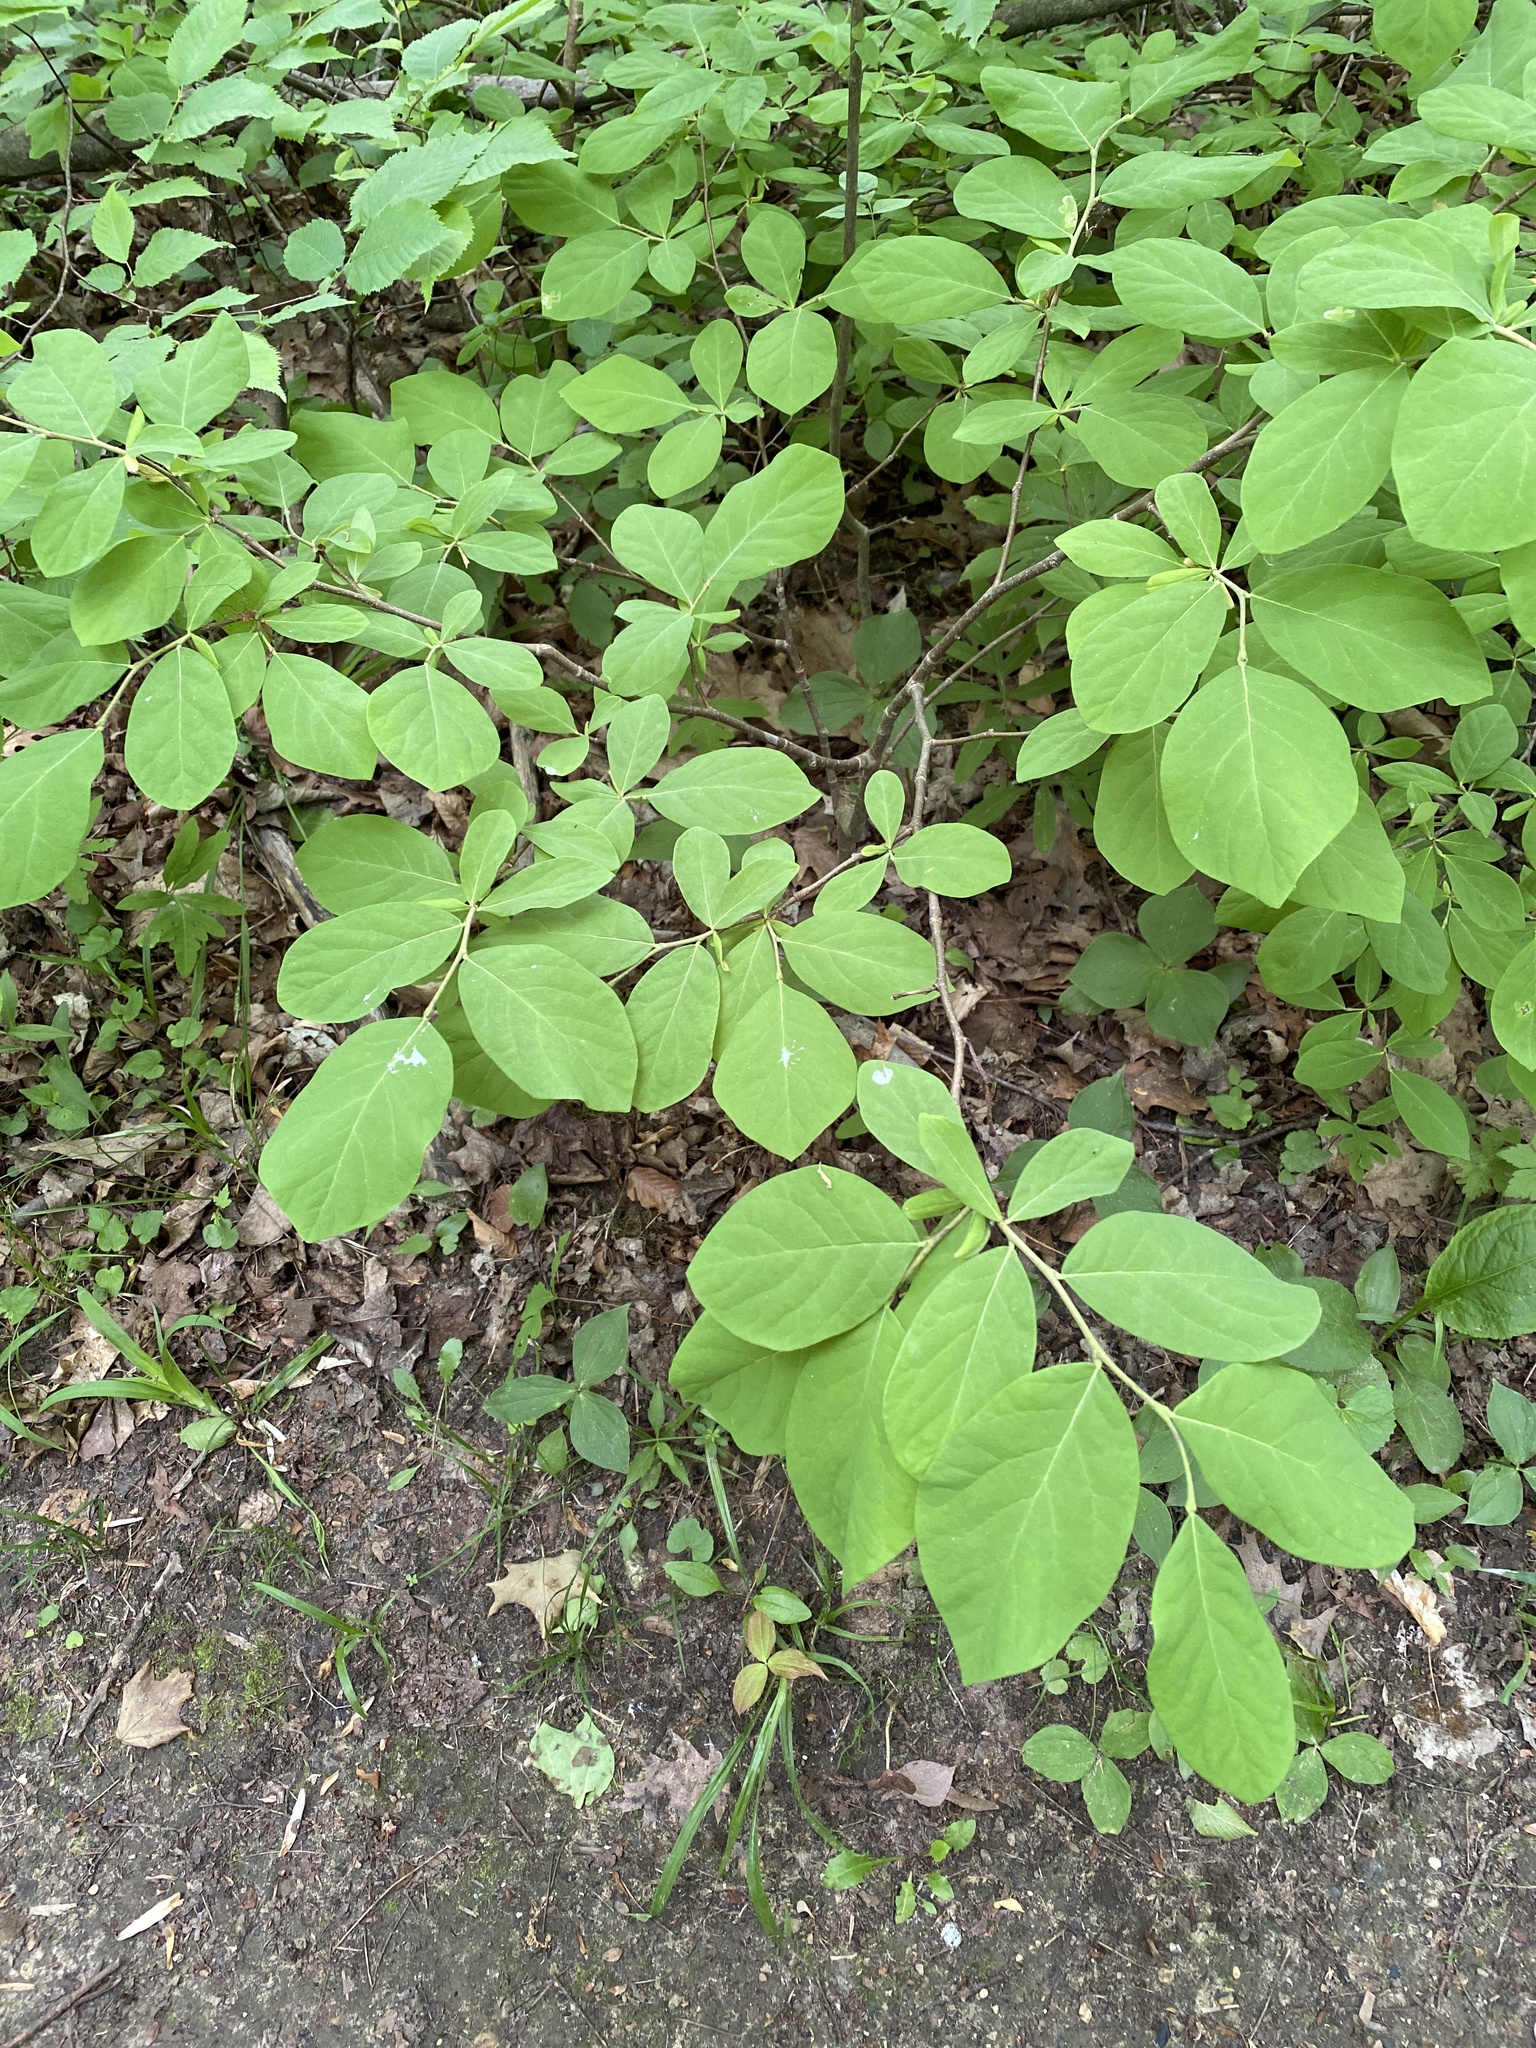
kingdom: Plantae
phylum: Tracheophyta
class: Magnoliopsida
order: Malvales
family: Thymelaeaceae
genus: Dirca
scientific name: Dirca palustris
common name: Leatherwood
